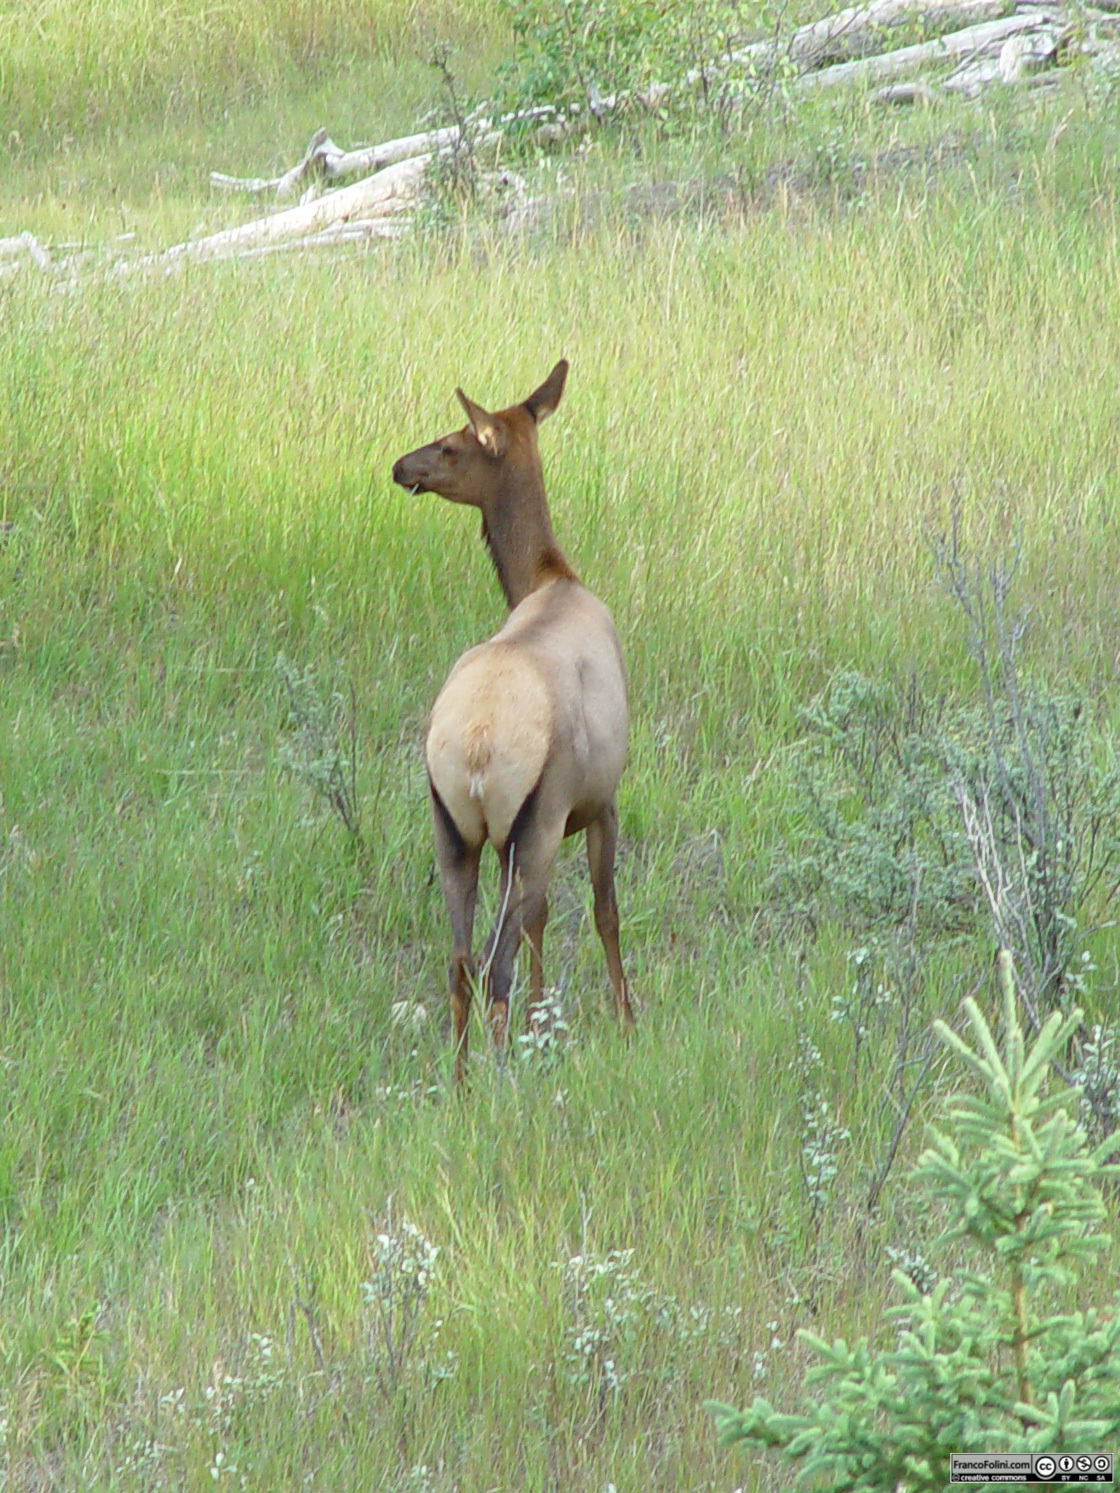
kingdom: Animalia
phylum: Chordata
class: Mammalia
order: Artiodactyla
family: Cervidae
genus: Cervus
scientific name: Cervus elaphus
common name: Red deer
